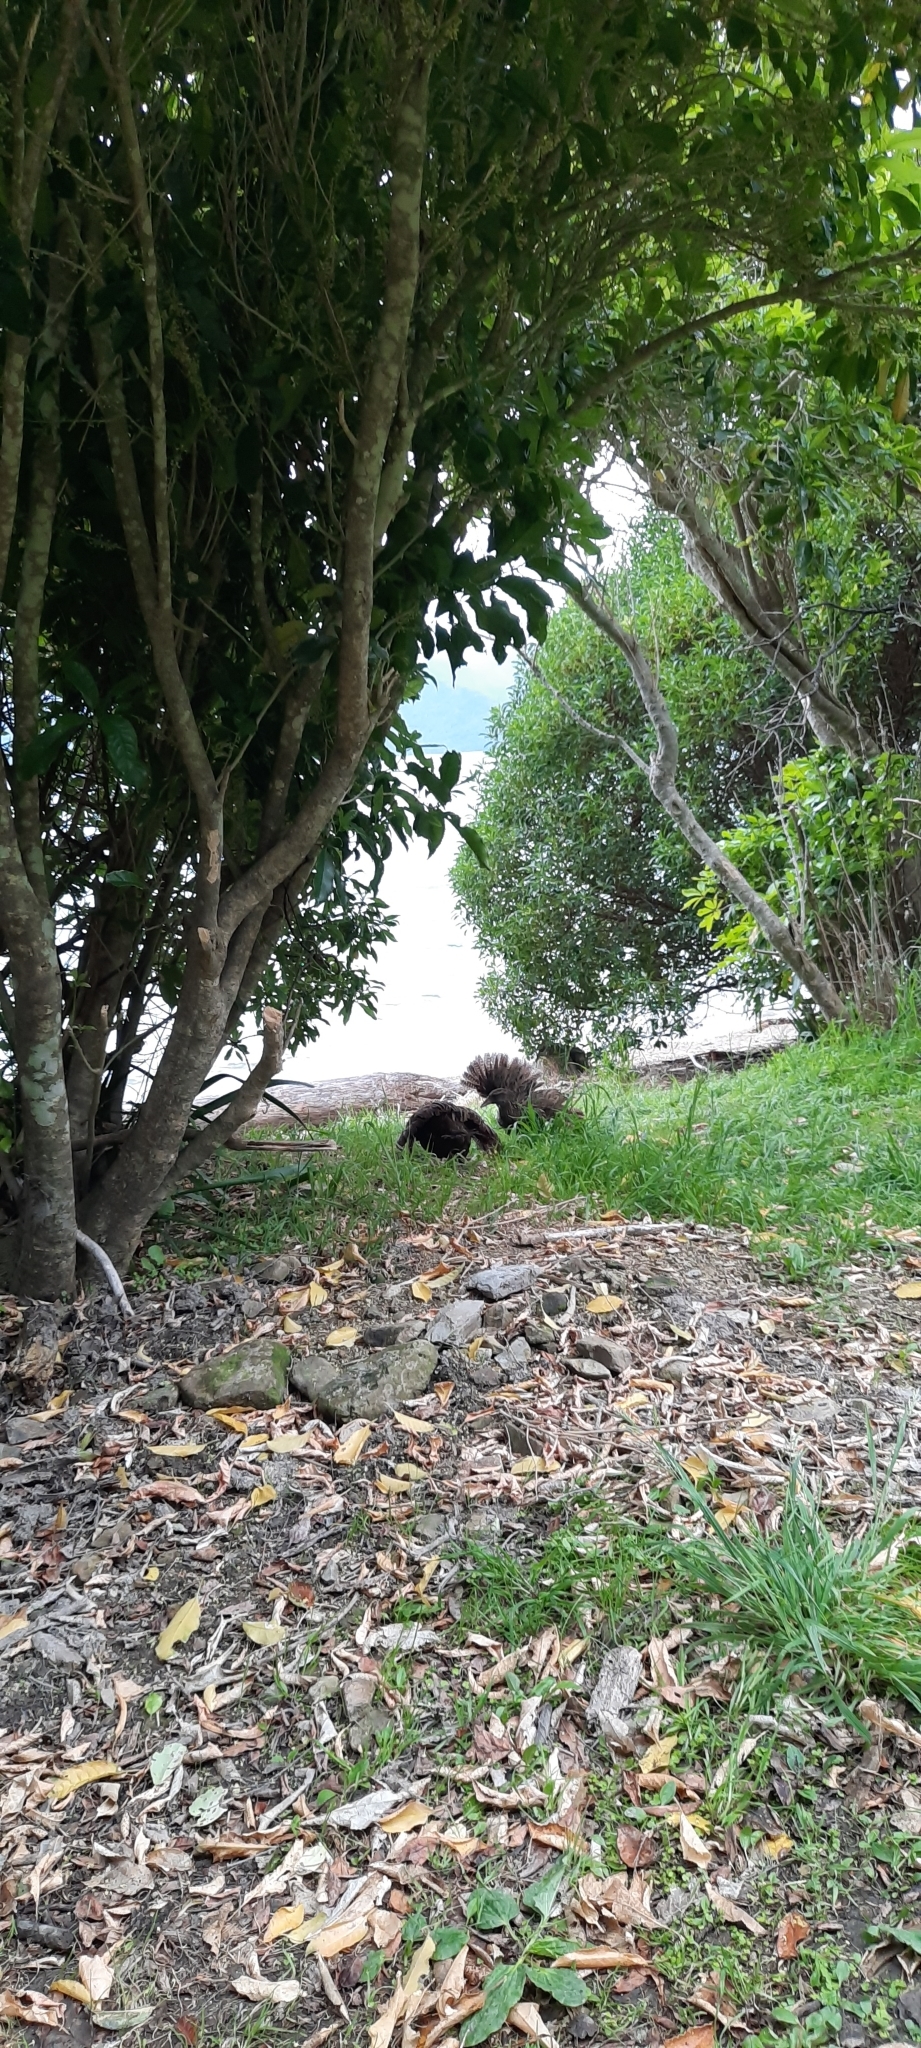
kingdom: Animalia
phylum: Chordata
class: Aves
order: Gruiformes
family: Rallidae
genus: Gallirallus
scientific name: Gallirallus australis
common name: Weka
